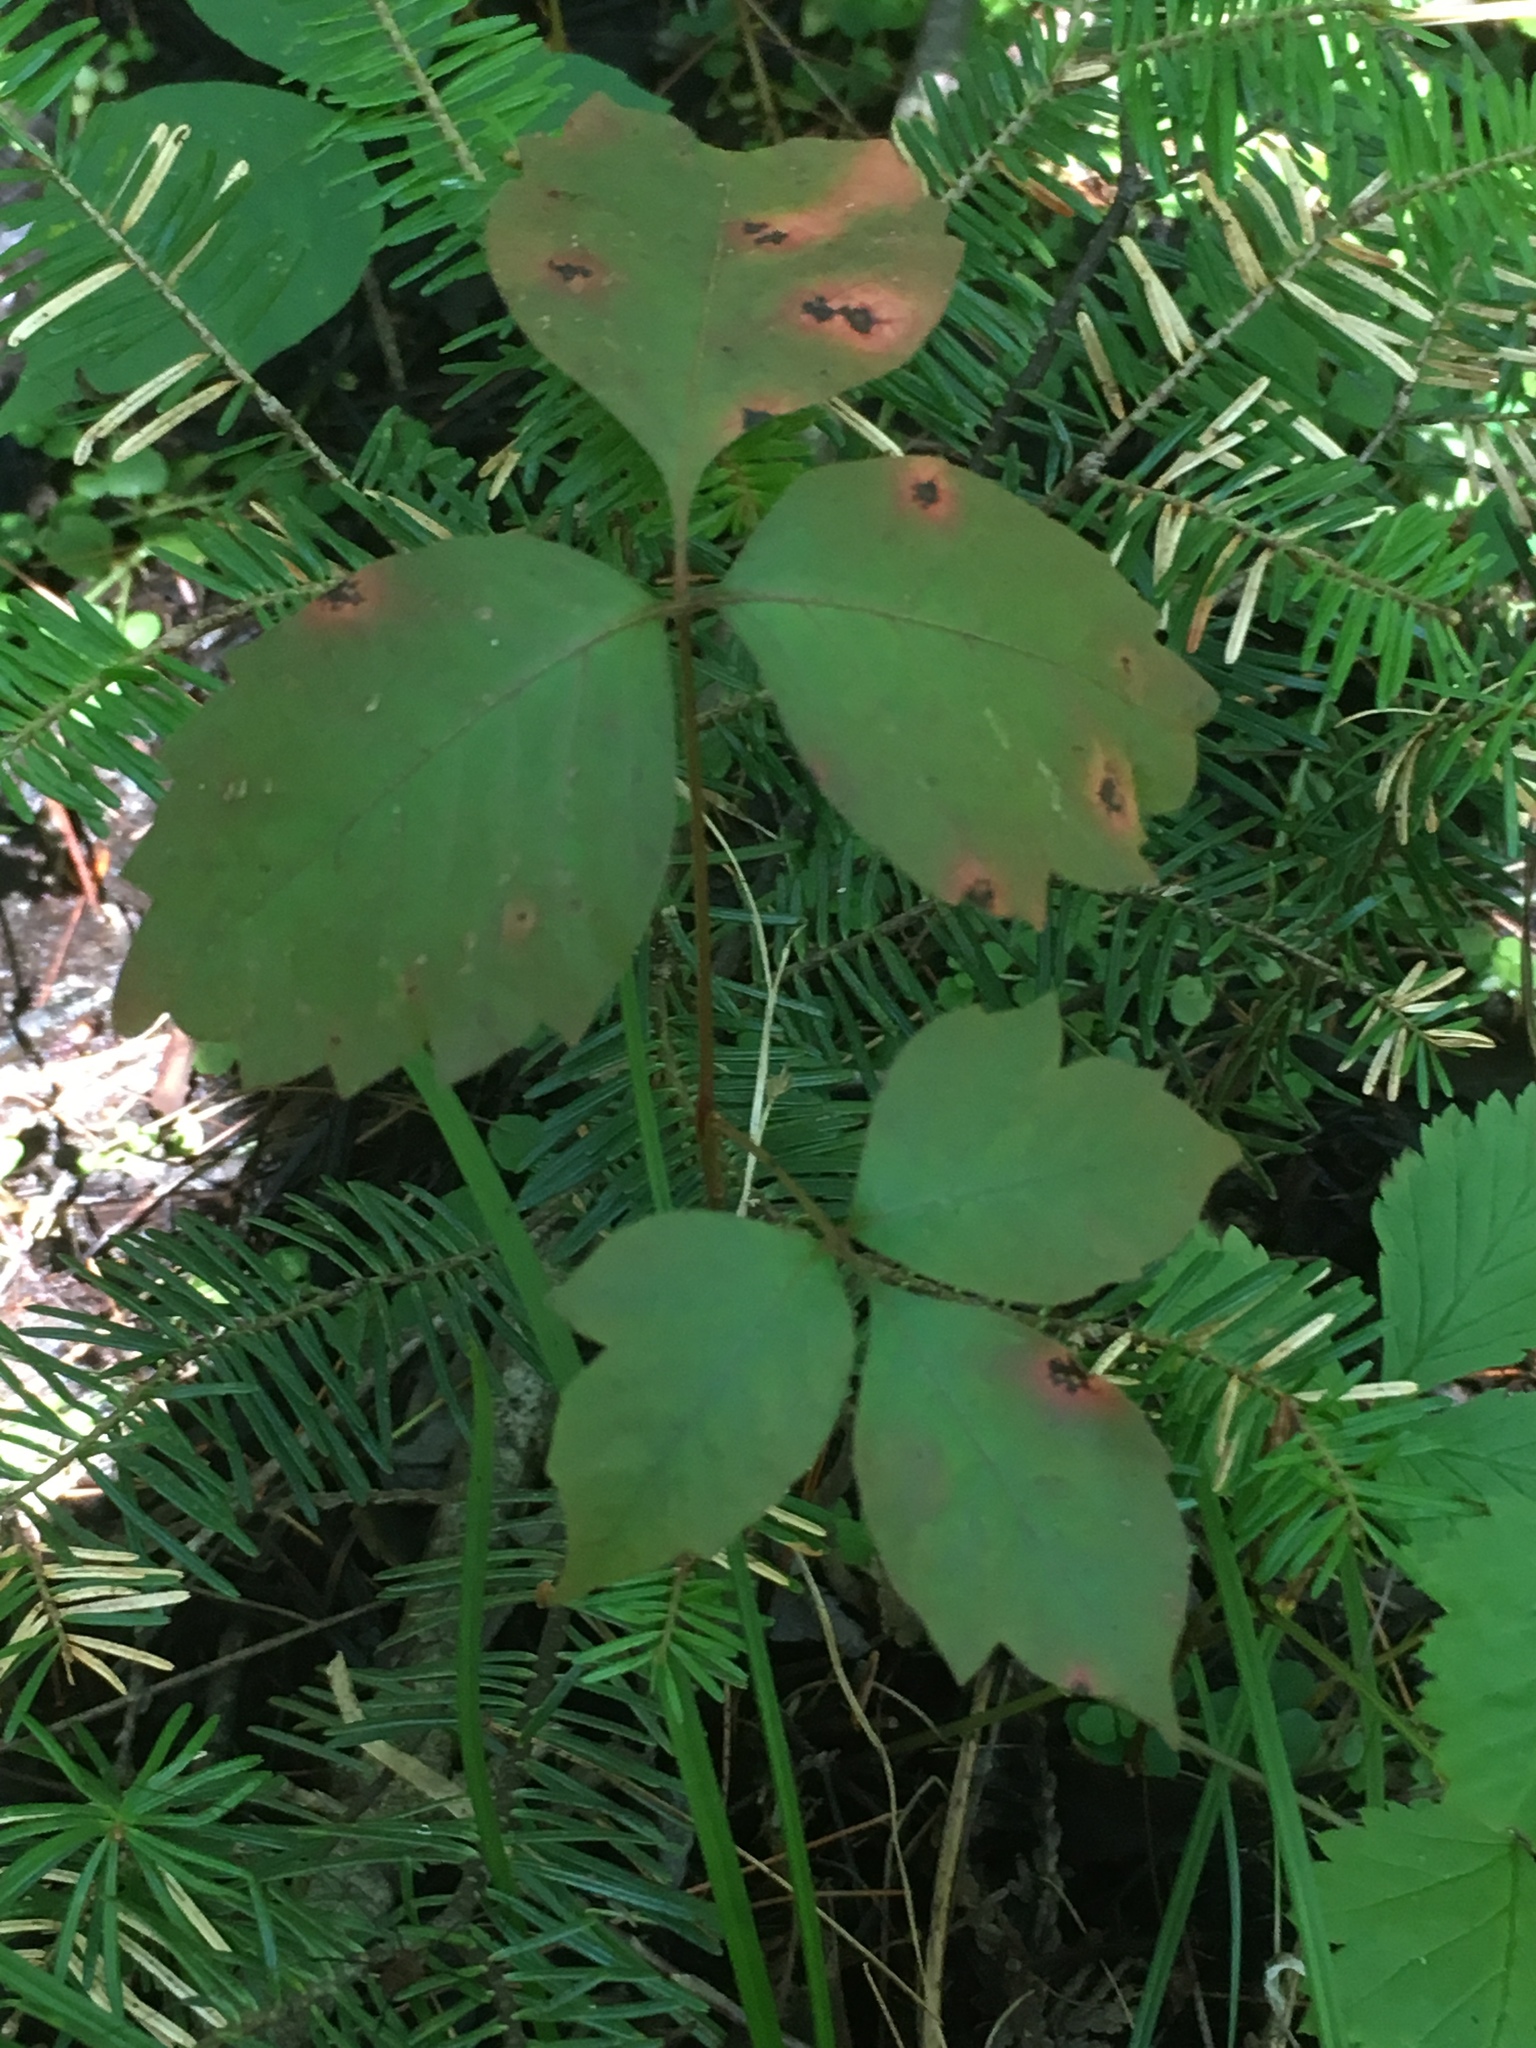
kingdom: Plantae
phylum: Tracheophyta
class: Magnoliopsida
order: Sapindales
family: Anacardiaceae
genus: Toxicodendron
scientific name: Toxicodendron rydbergii
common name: Rydberg's poison-ivy
